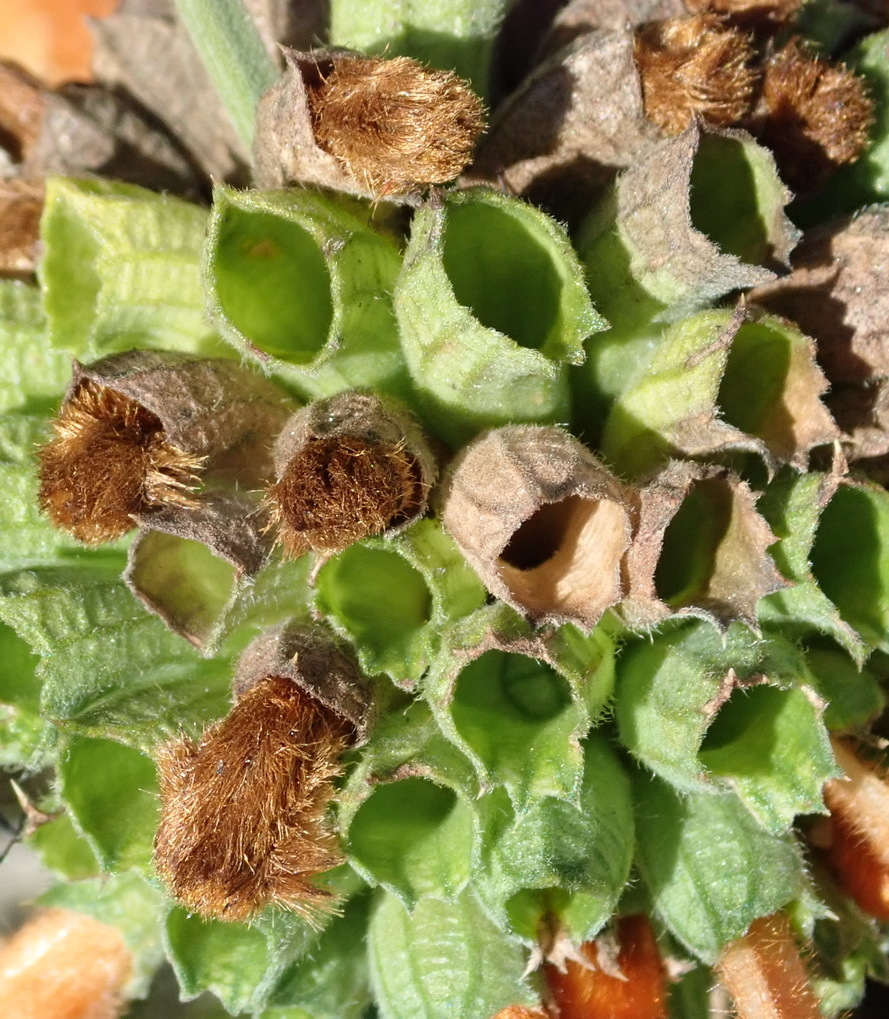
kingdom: Plantae
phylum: Tracheophyta
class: Magnoliopsida
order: Lamiales
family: Lamiaceae
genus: Leonotis
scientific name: Leonotis ocymifolia
